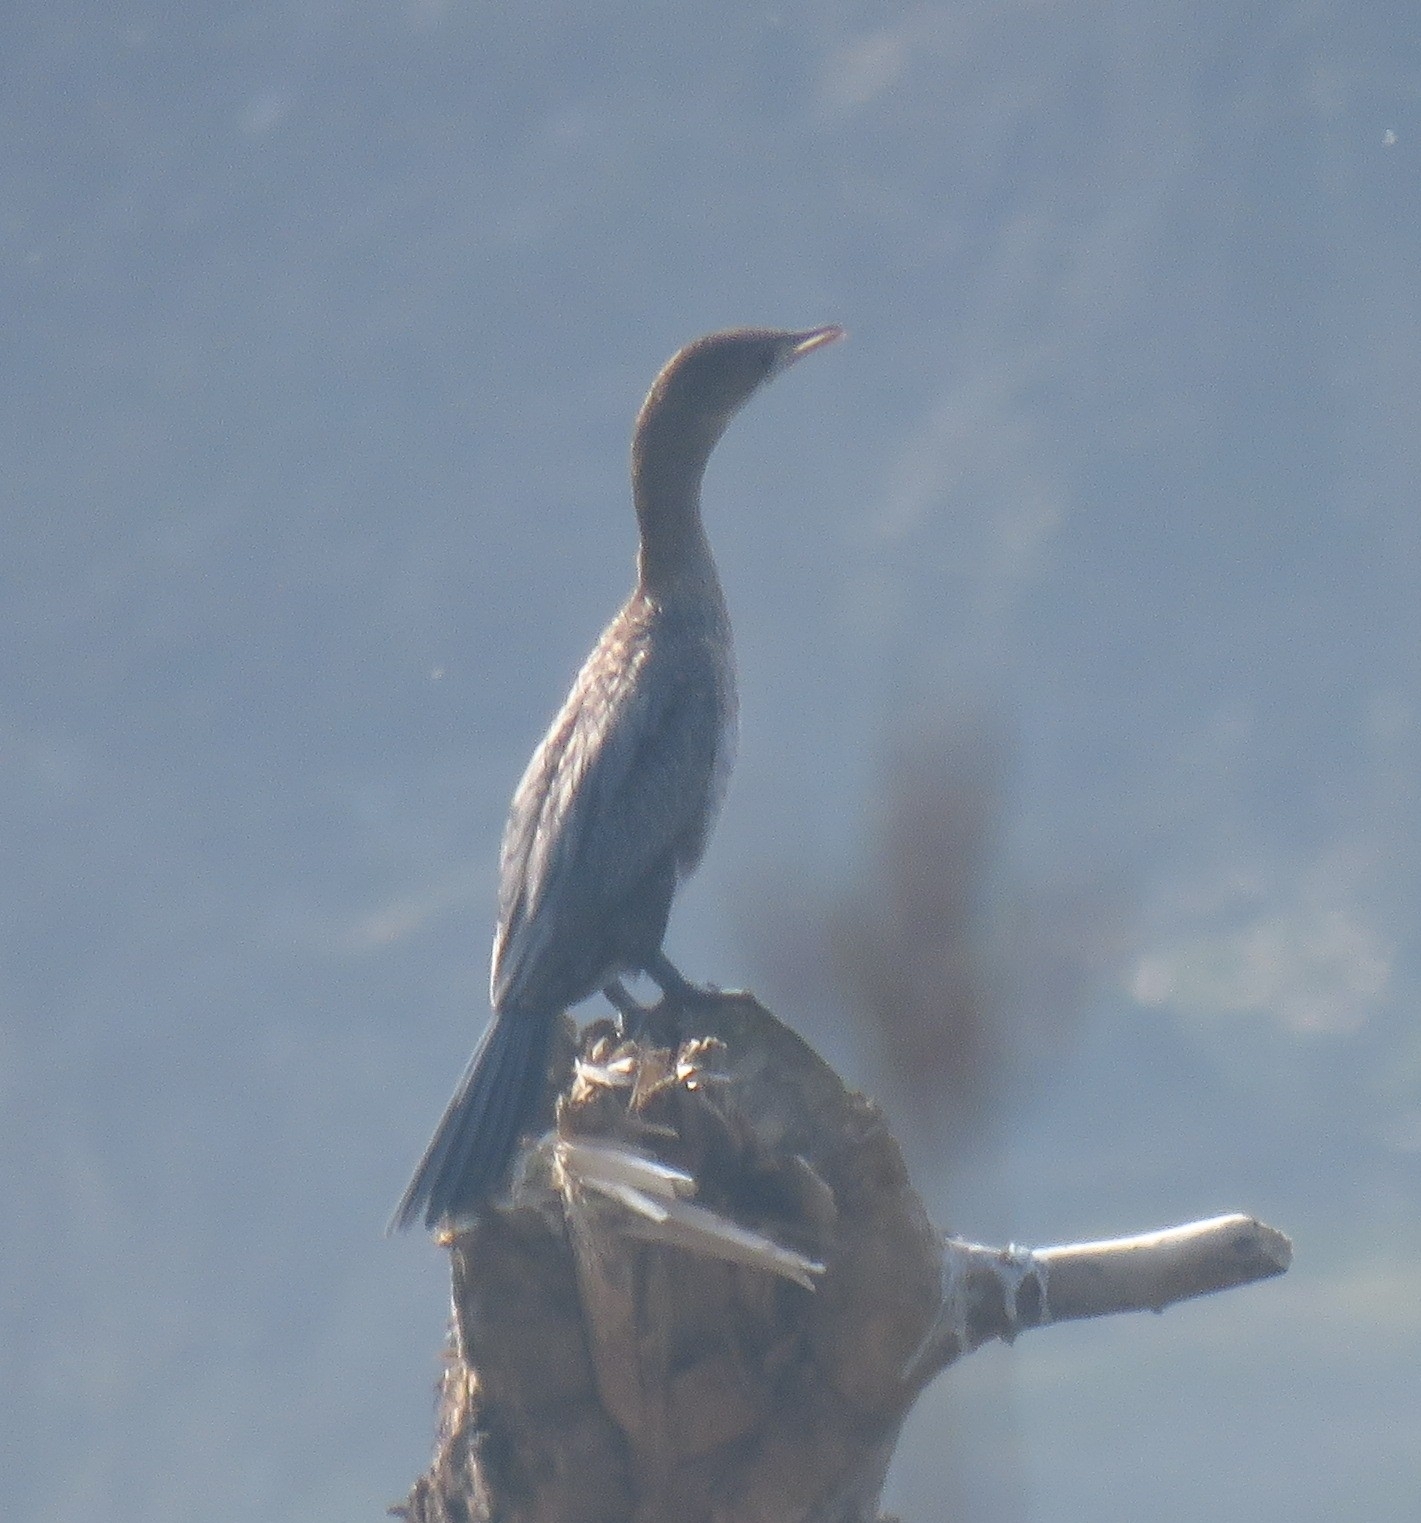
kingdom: Animalia
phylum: Chordata
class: Aves
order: Suliformes
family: Phalacrocoracidae
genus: Microcarbo
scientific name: Microcarbo pygmaeus
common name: Pygmy cormorant
